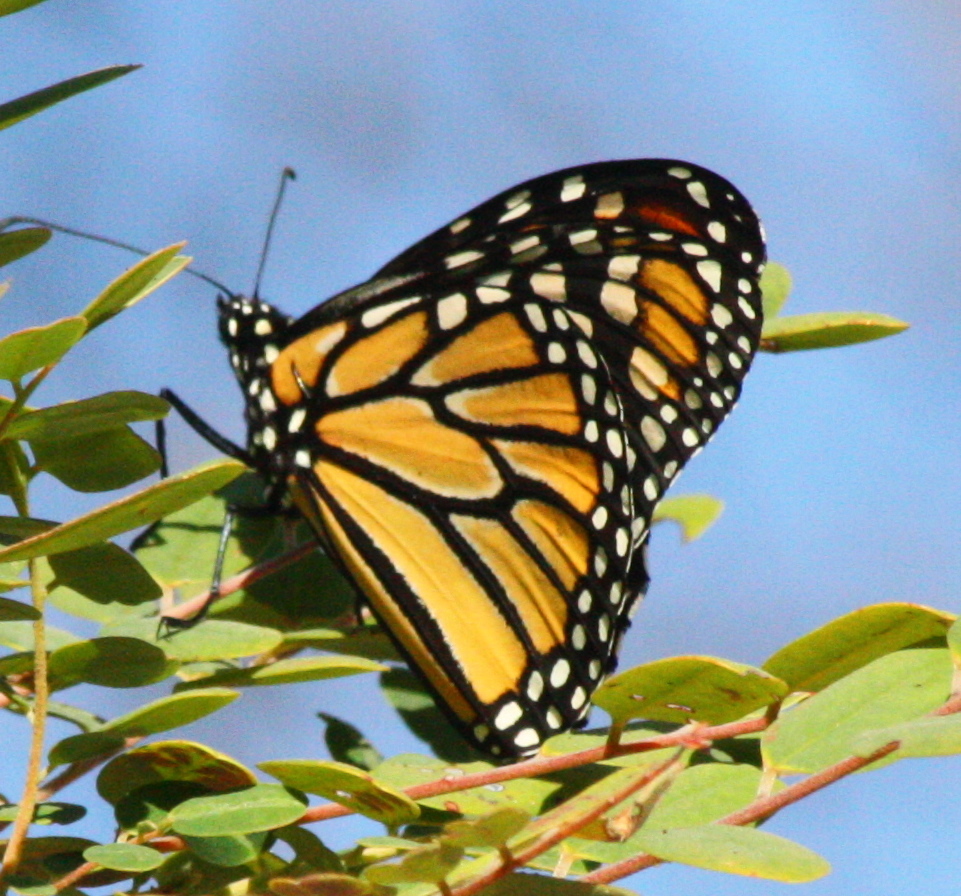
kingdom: Animalia
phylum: Arthropoda
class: Insecta
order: Lepidoptera
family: Nymphalidae
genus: Danaus
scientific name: Danaus plexippus
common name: Monarch
